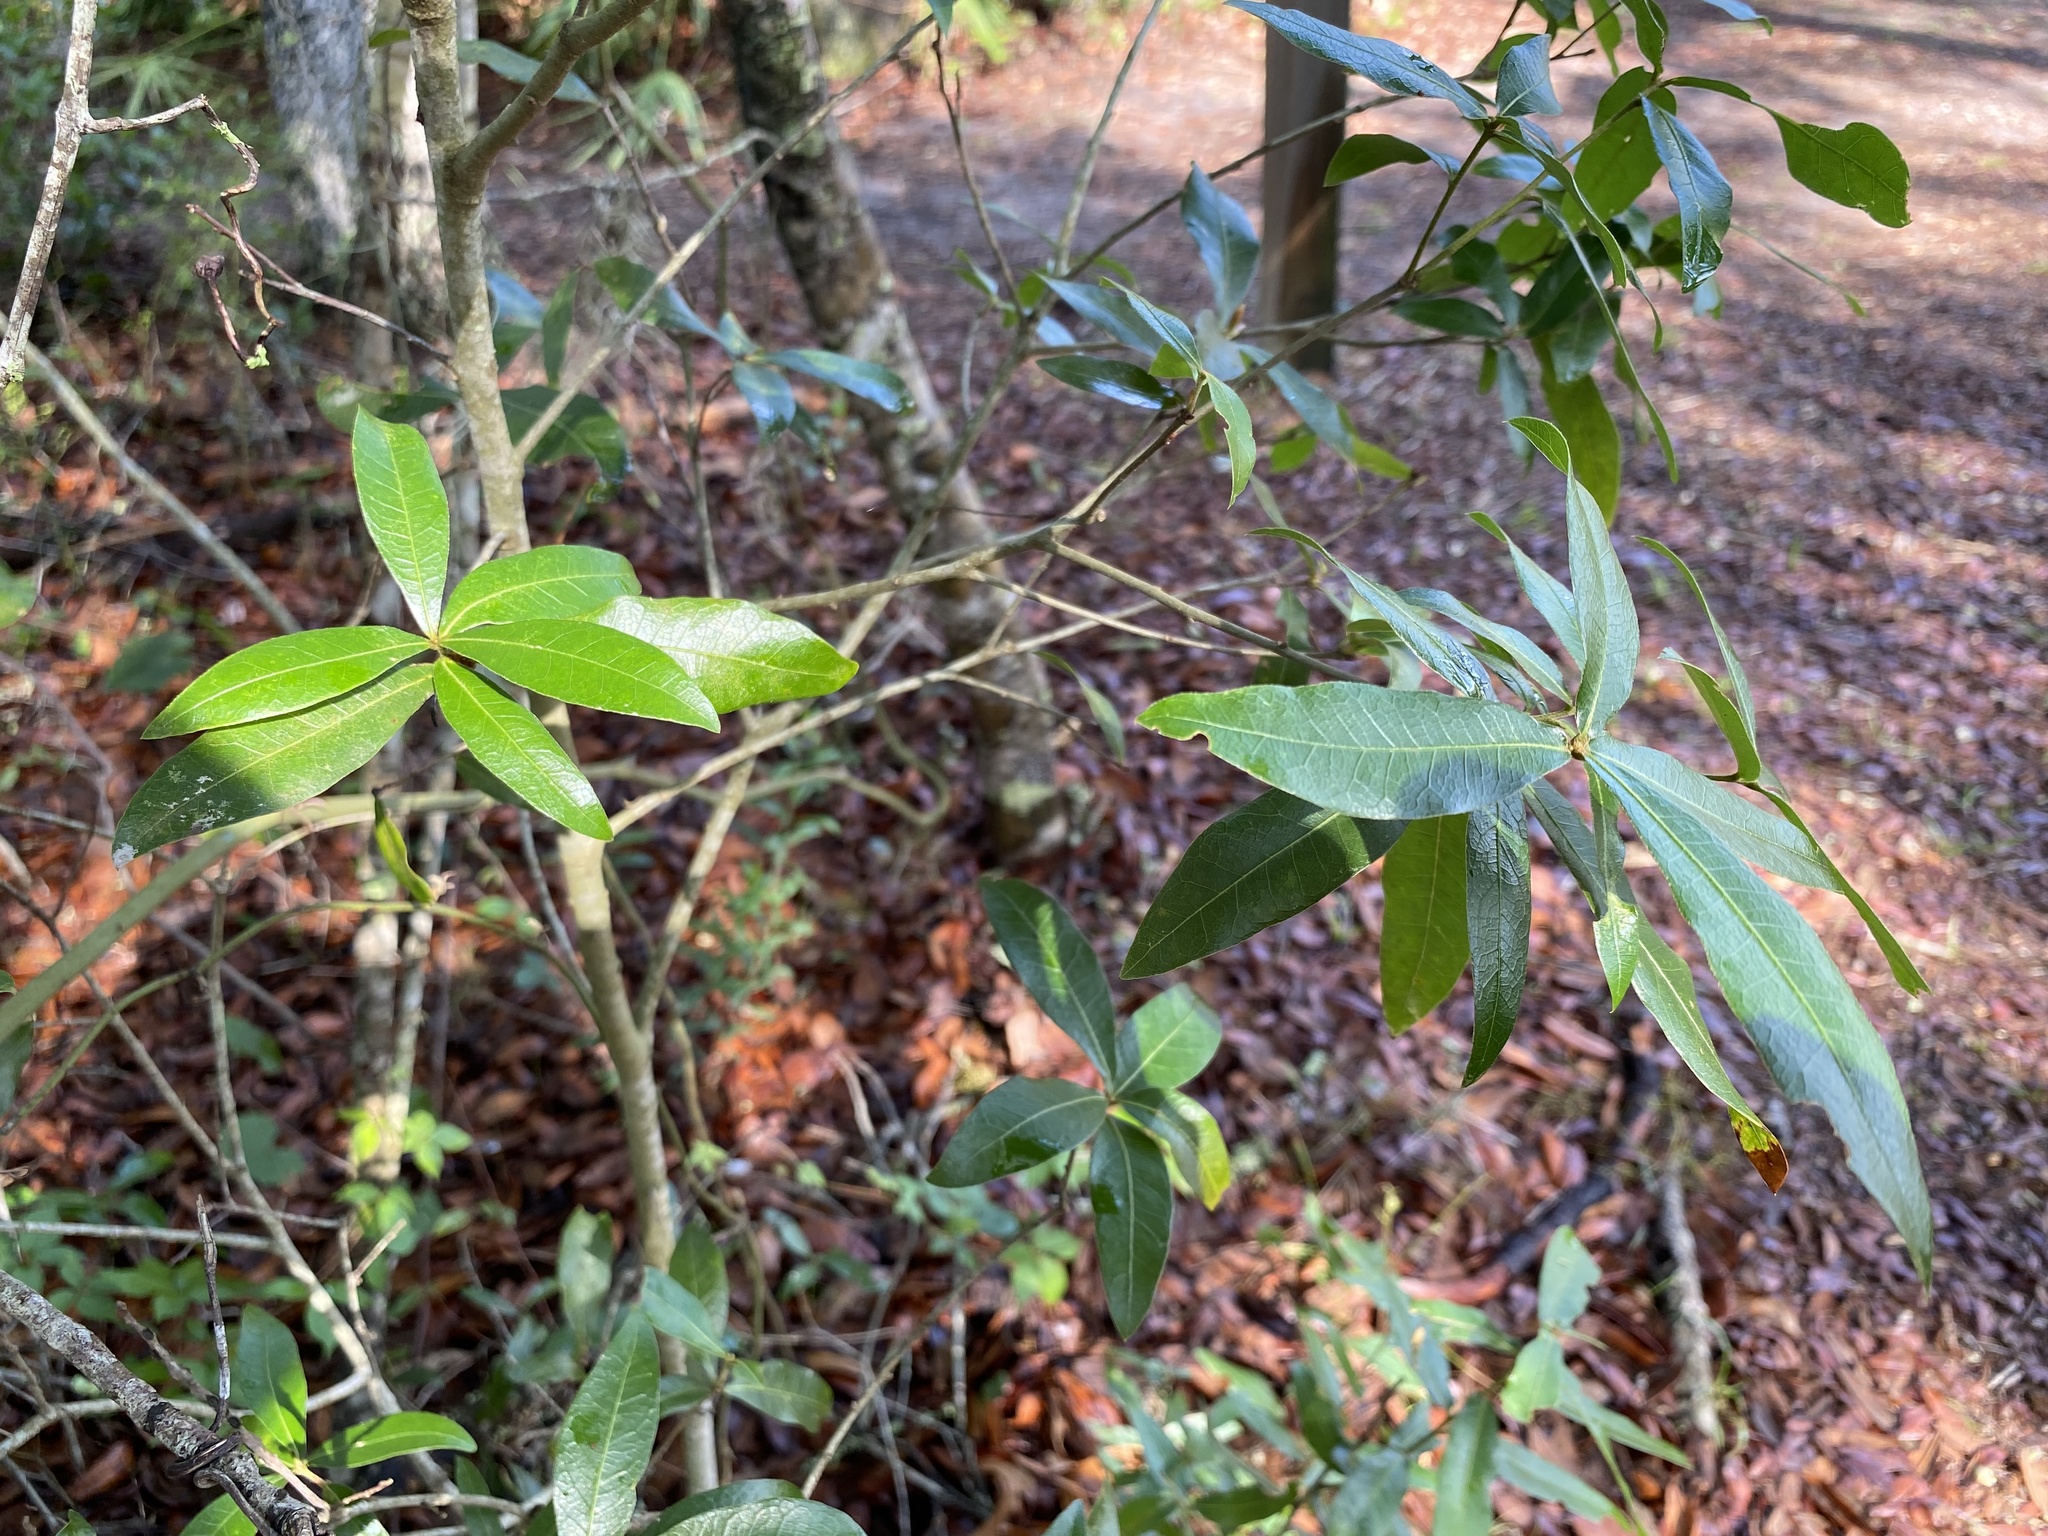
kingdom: Plantae
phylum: Tracheophyta
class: Magnoliopsida
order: Fagales
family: Fagaceae
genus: Quercus
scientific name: Quercus hemisphaerica
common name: Darlington oak
